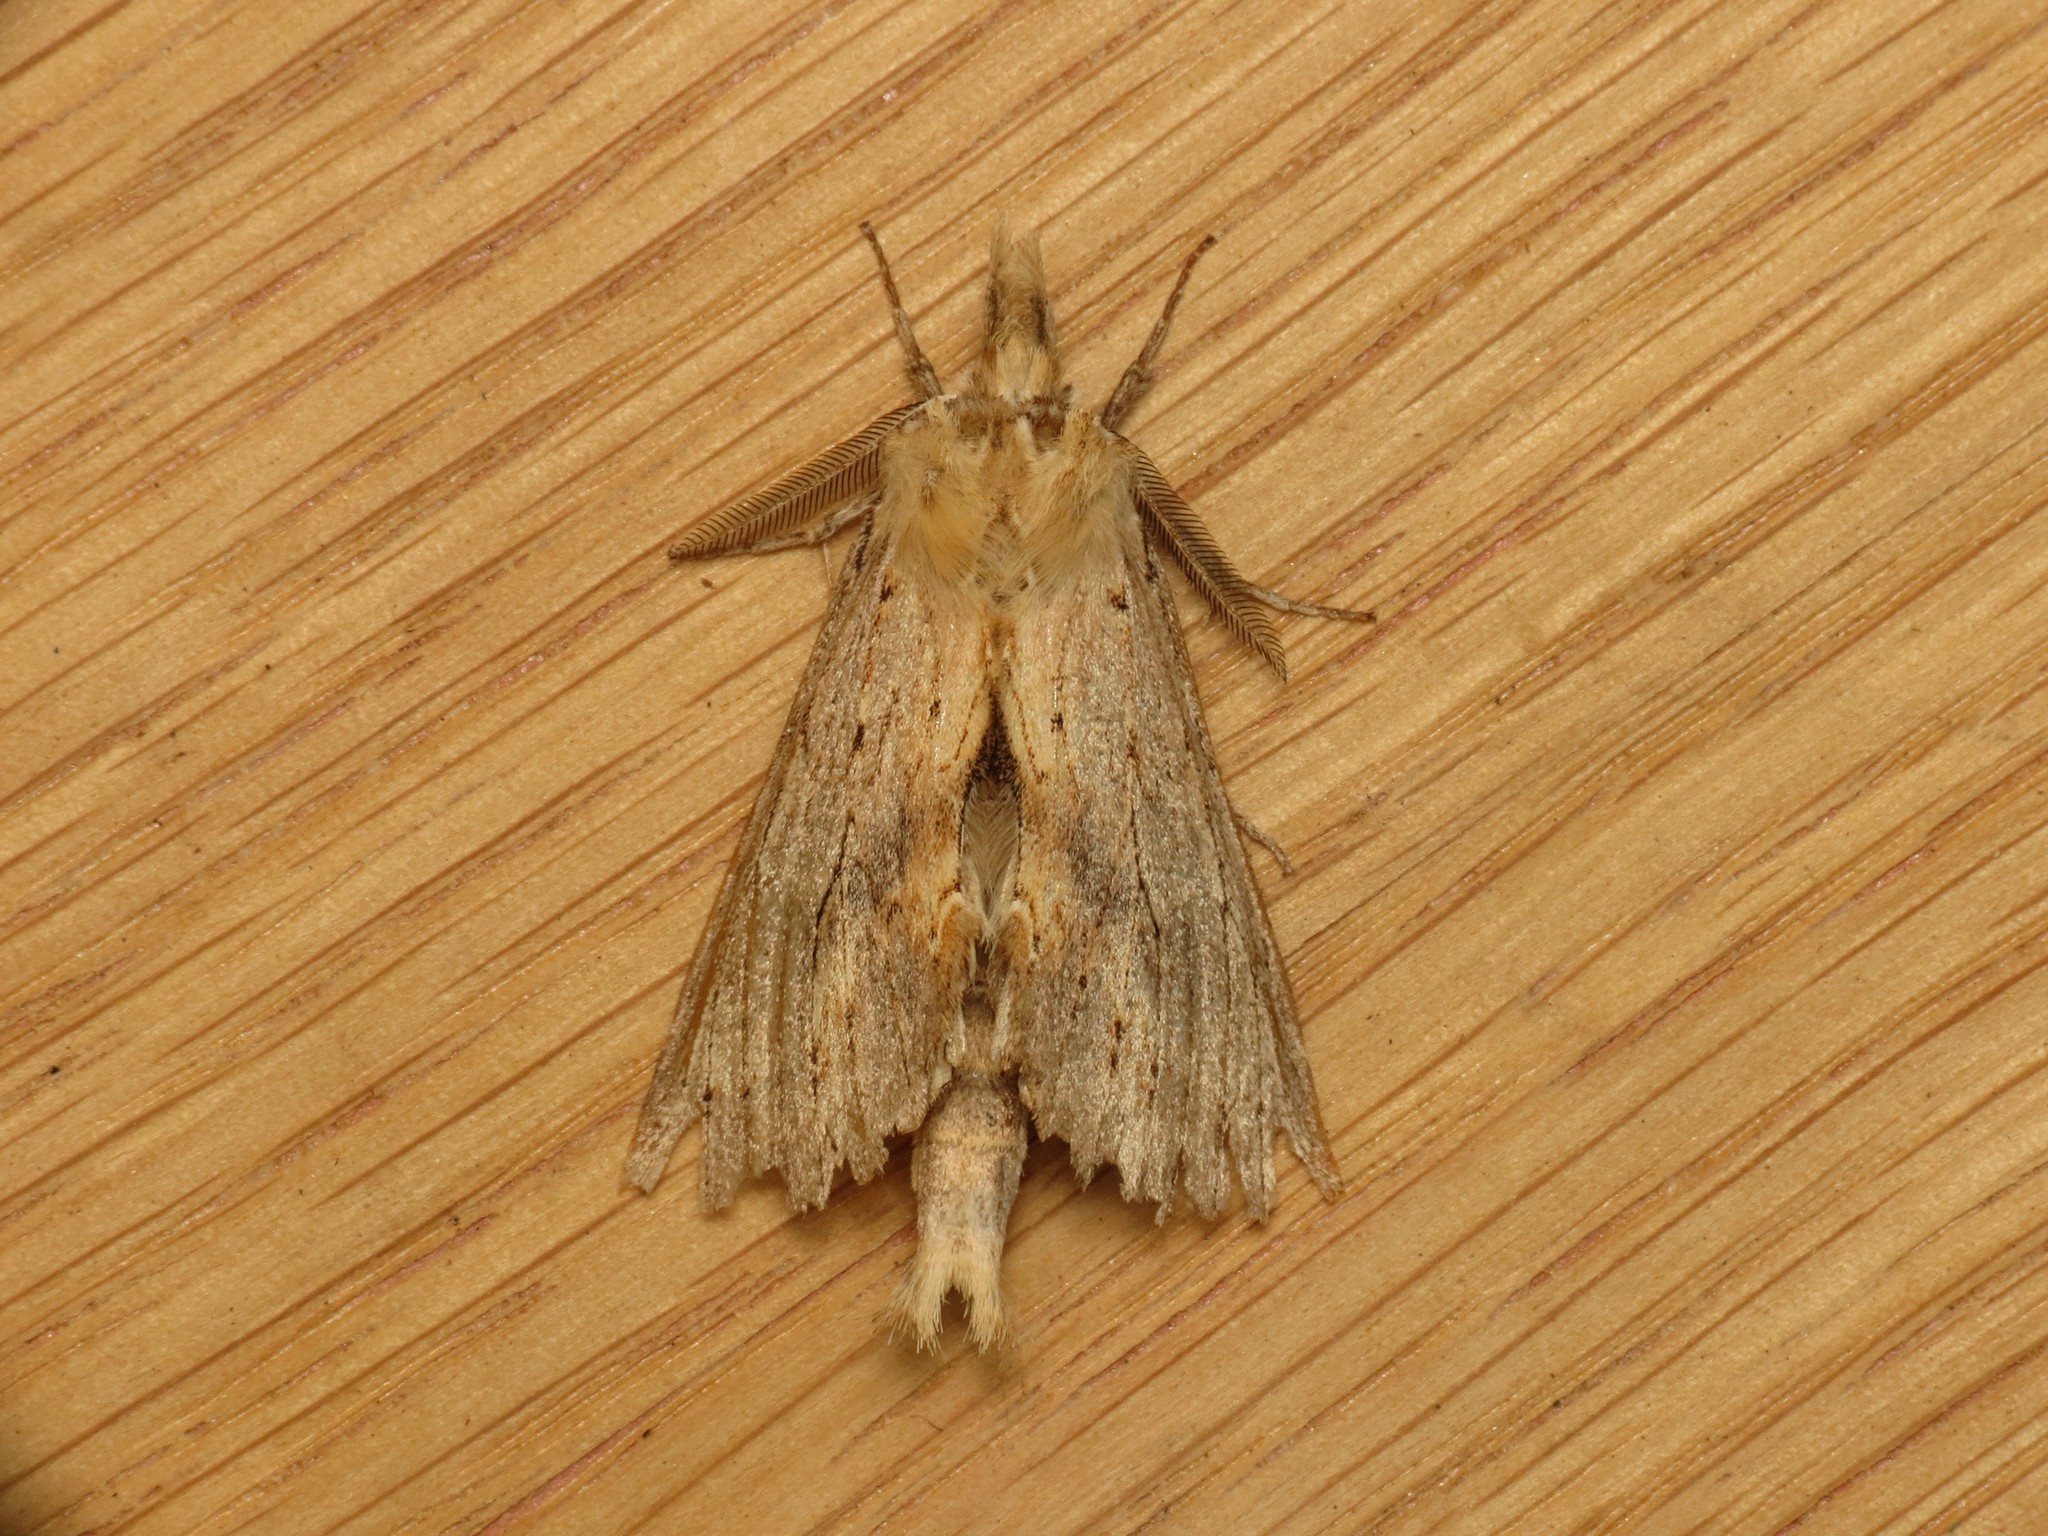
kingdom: Animalia
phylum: Arthropoda
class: Insecta
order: Lepidoptera
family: Notodontidae
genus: Pterostoma
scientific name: Pterostoma palpina
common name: Pale prominent
